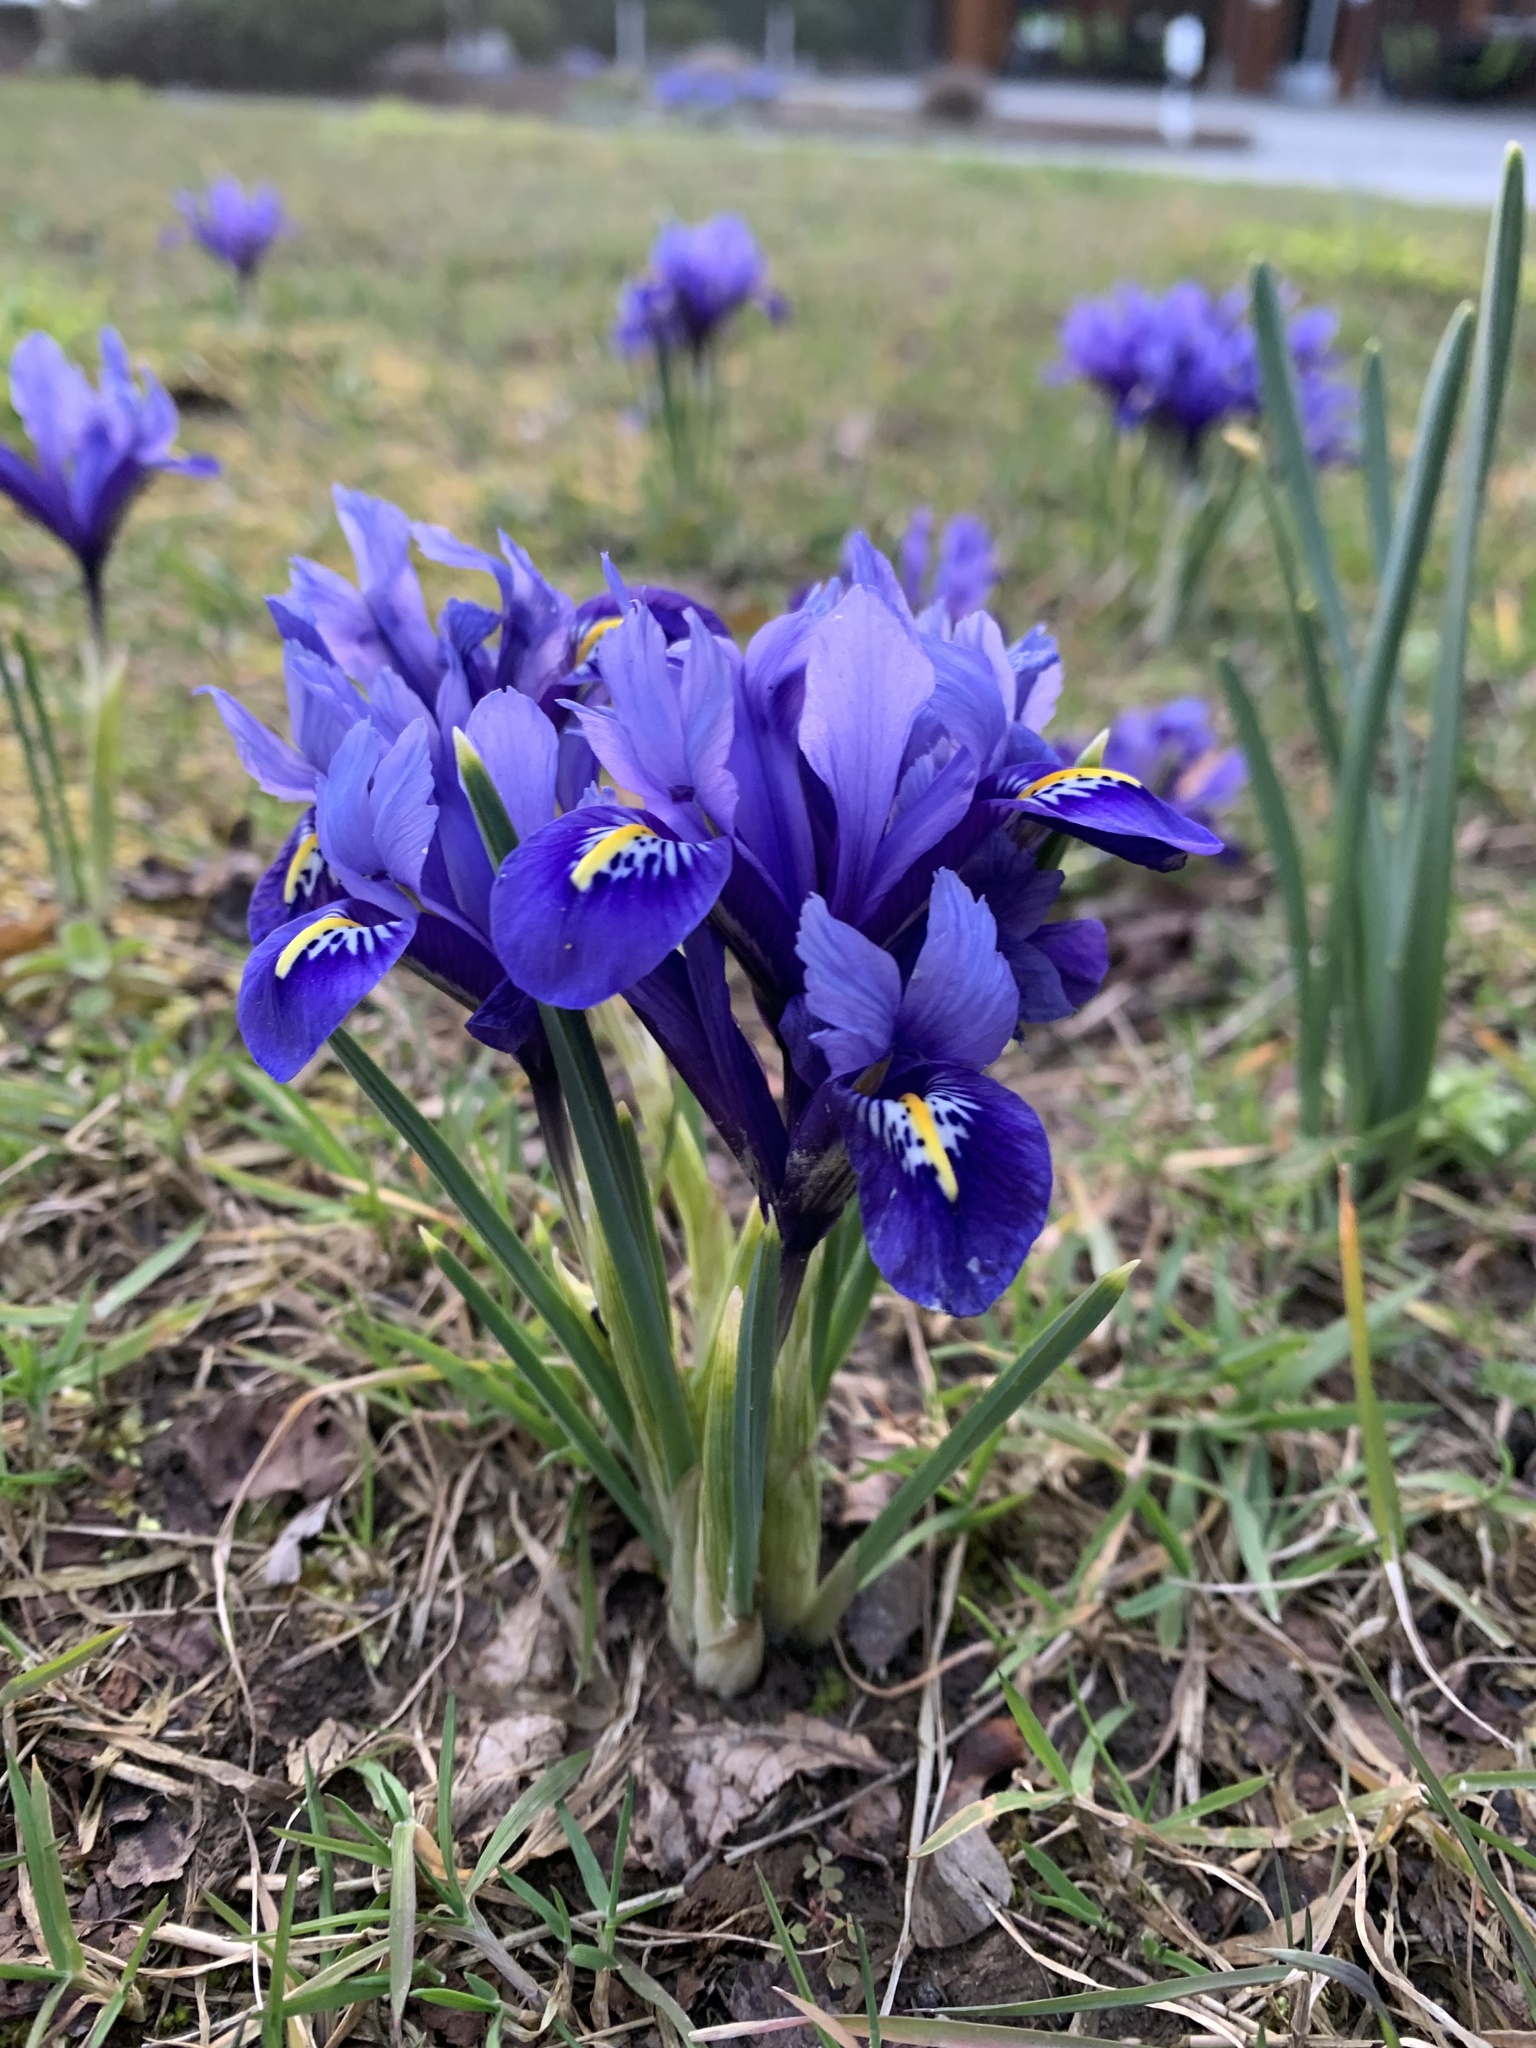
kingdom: Plantae
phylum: Tracheophyta
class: Liliopsida
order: Asparagales
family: Iridaceae
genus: Iris
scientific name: Iris reticulata
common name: Netted iris
